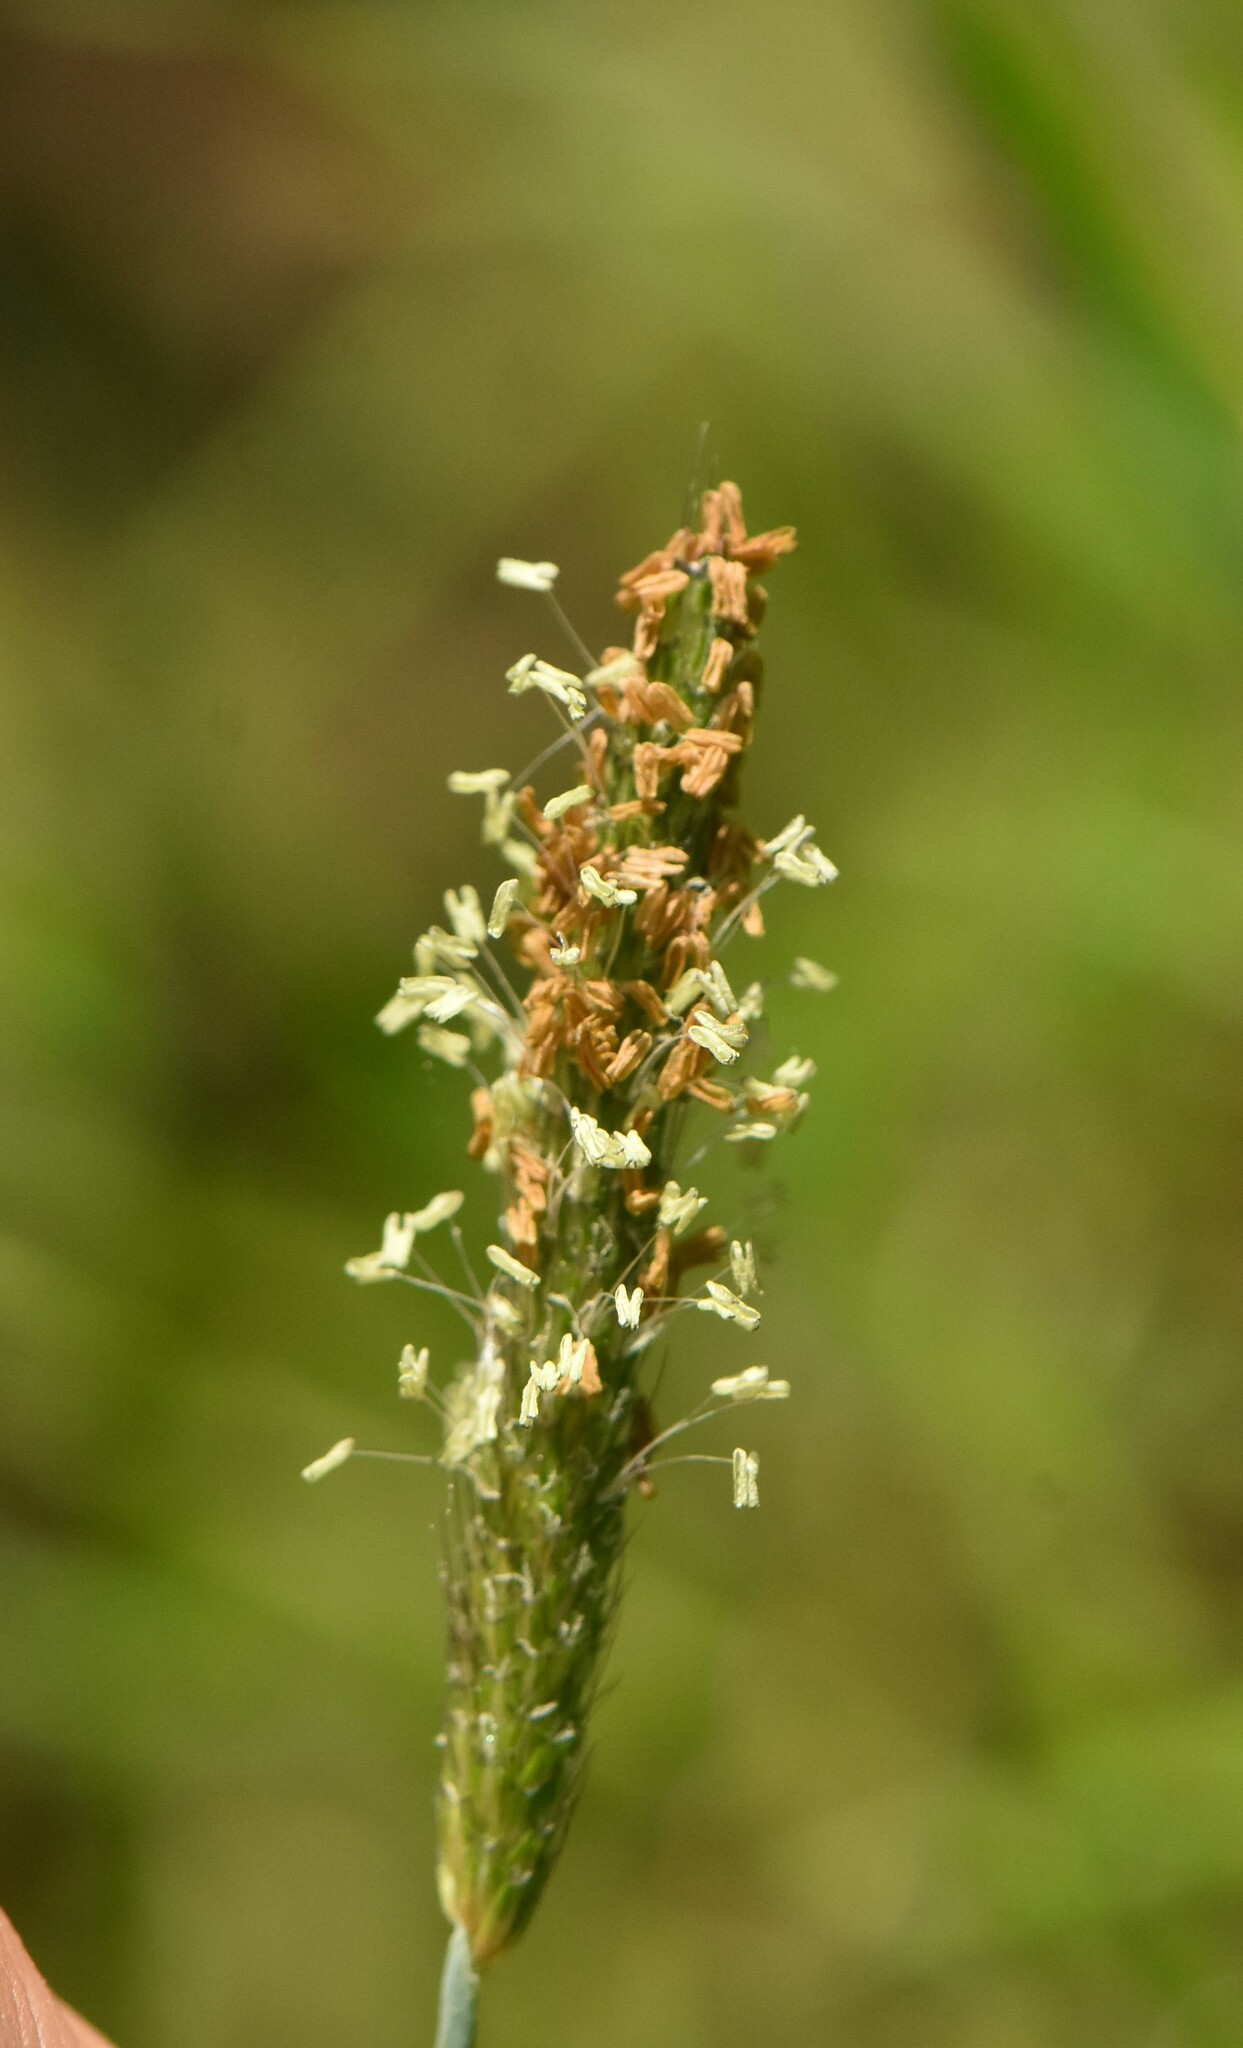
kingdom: Plantae
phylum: Tracheophyta
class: Liliopsida
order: Poales
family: Poaceae
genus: Alopecurus
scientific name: Alopecurus geniculatus
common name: Water foxtail
